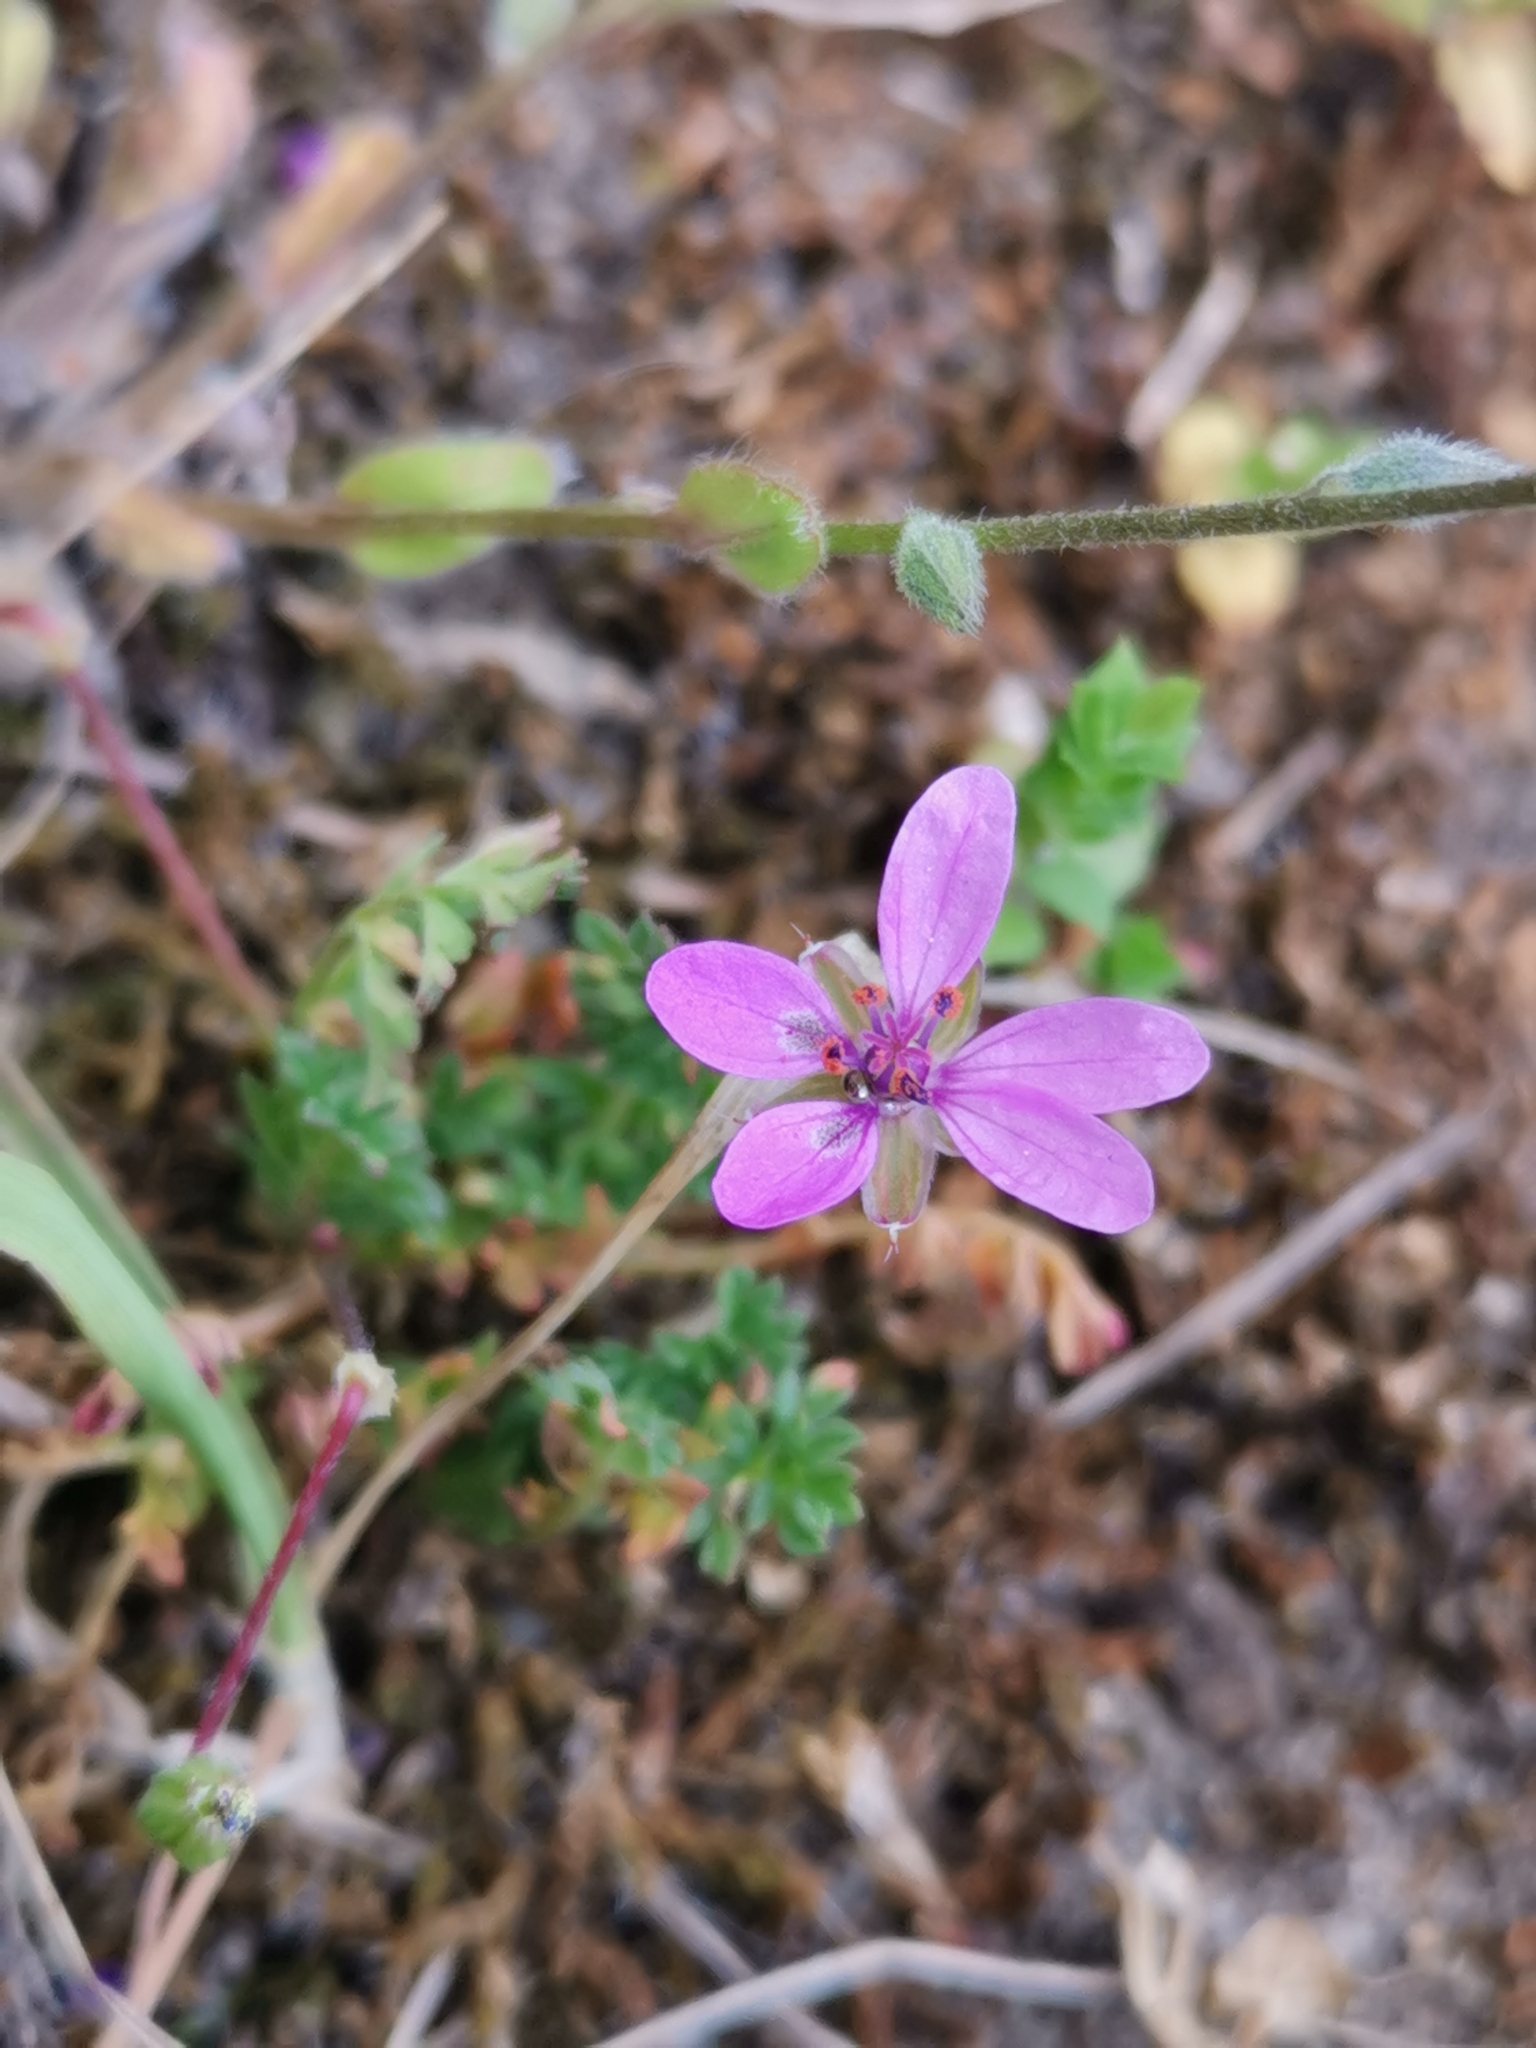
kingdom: Plantae
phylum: Tracheophyta
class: Magnoliopsida
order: Geraniales
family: Geraniaceae
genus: Erodium
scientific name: Erodium cicutarium
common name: Common stork's-bill
